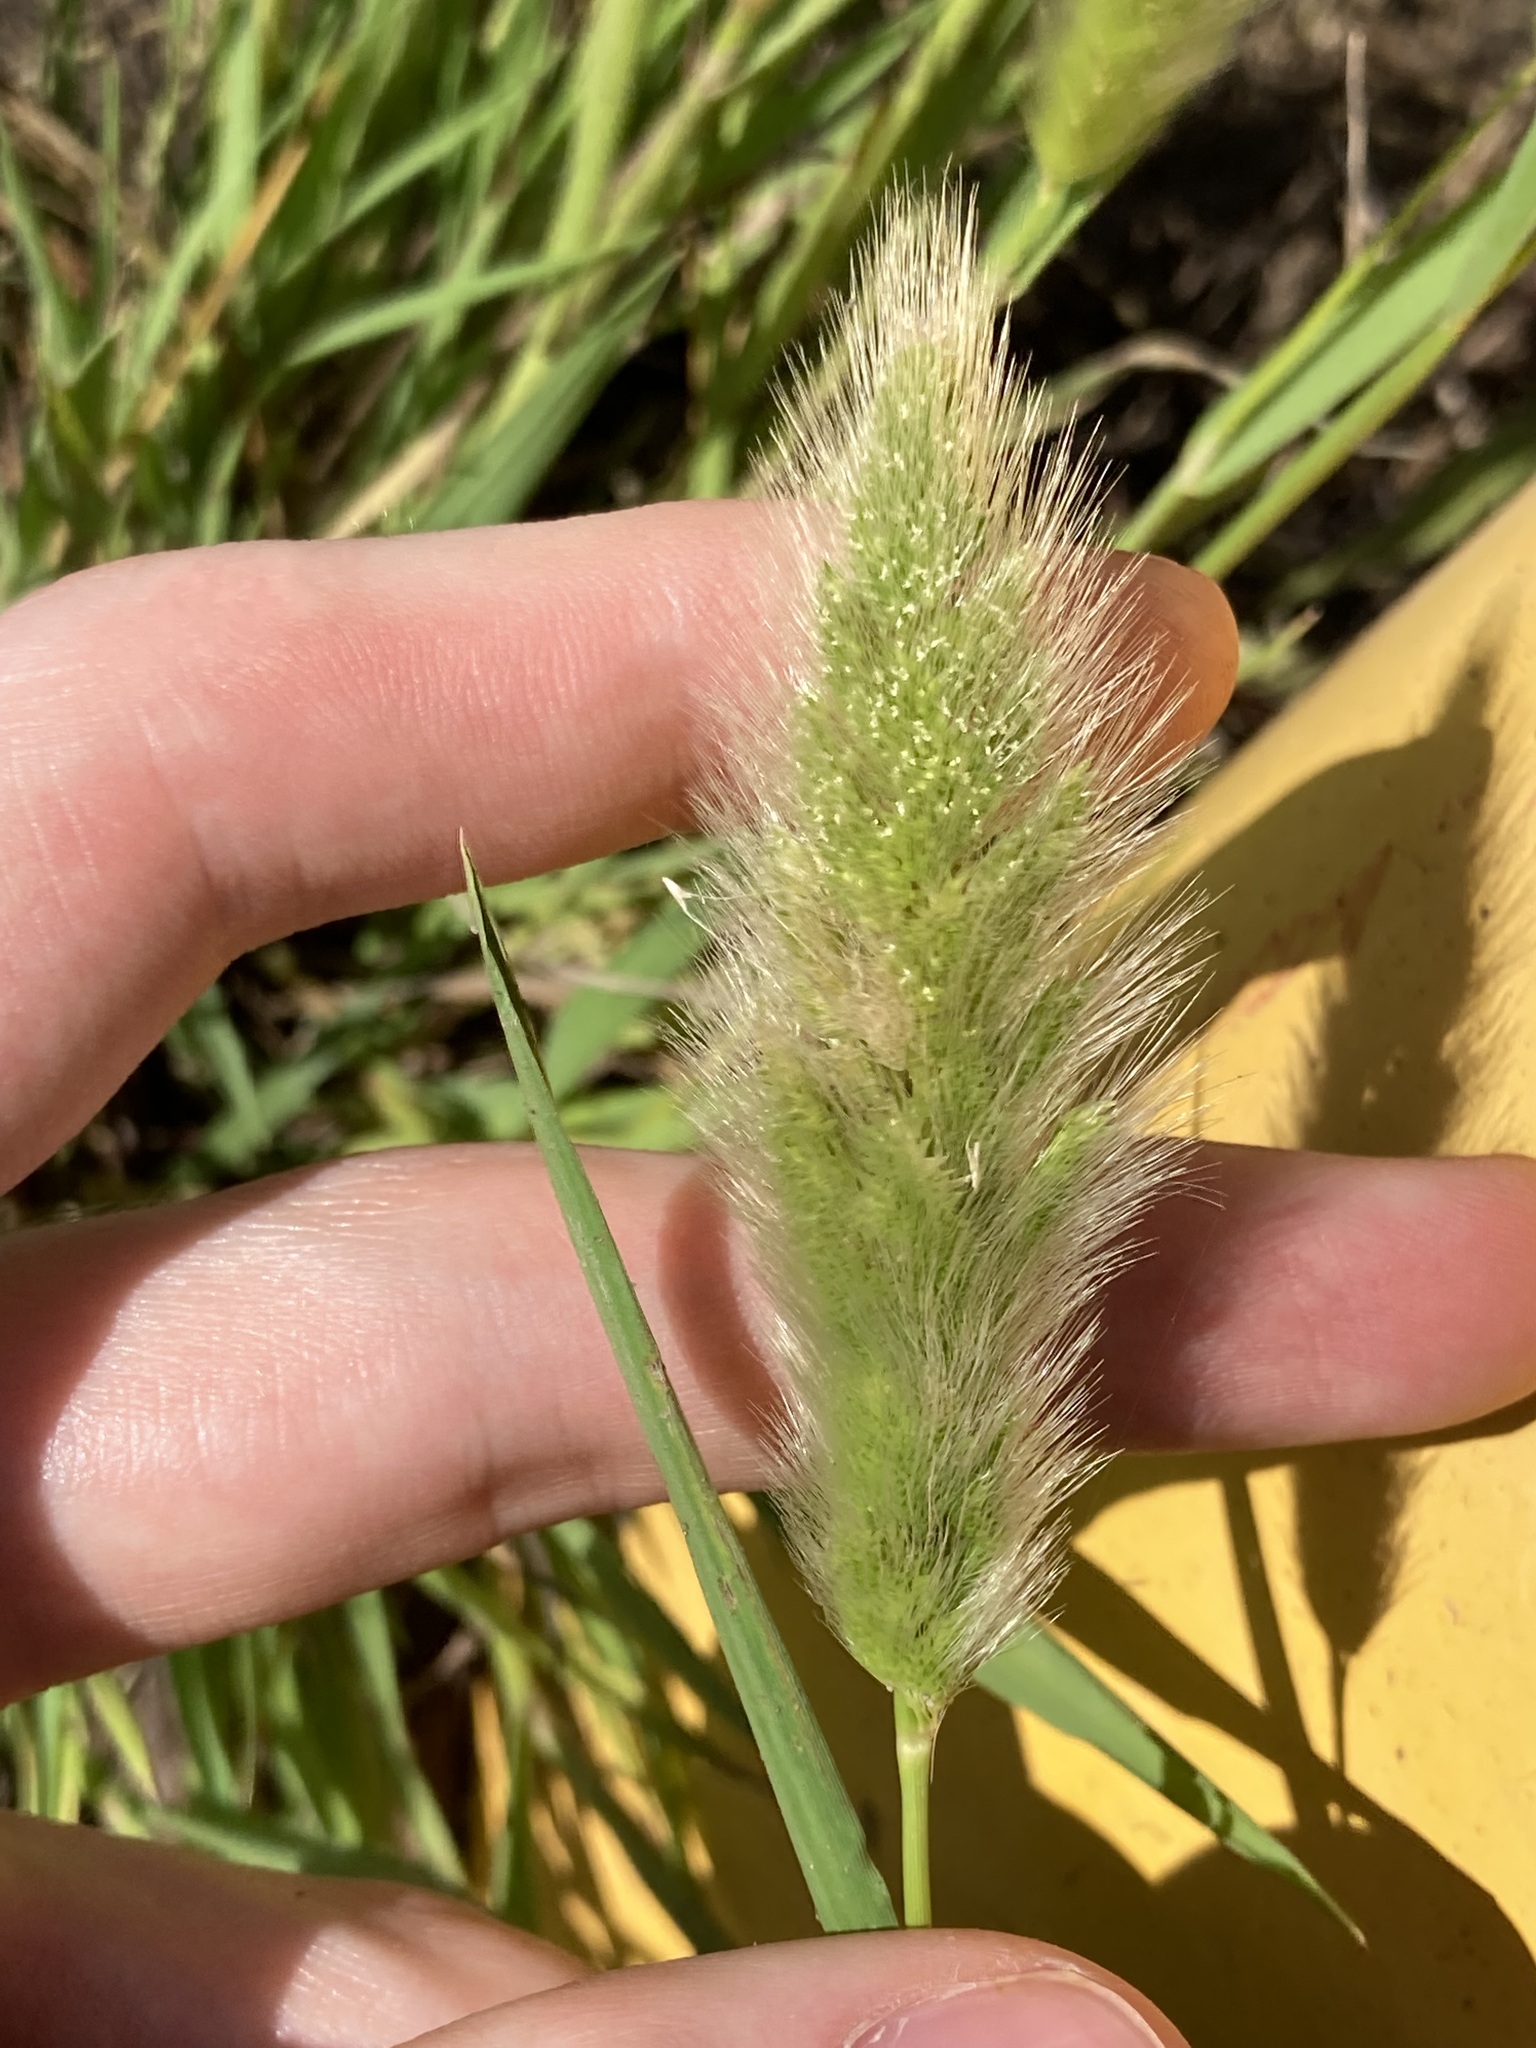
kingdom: Plantae
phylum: Tracheophyta
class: Liliopsida
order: Poales
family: Poaceae
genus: Polypogon
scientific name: Polypogon monspeliensis
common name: Annual rabbitsfoot grass
